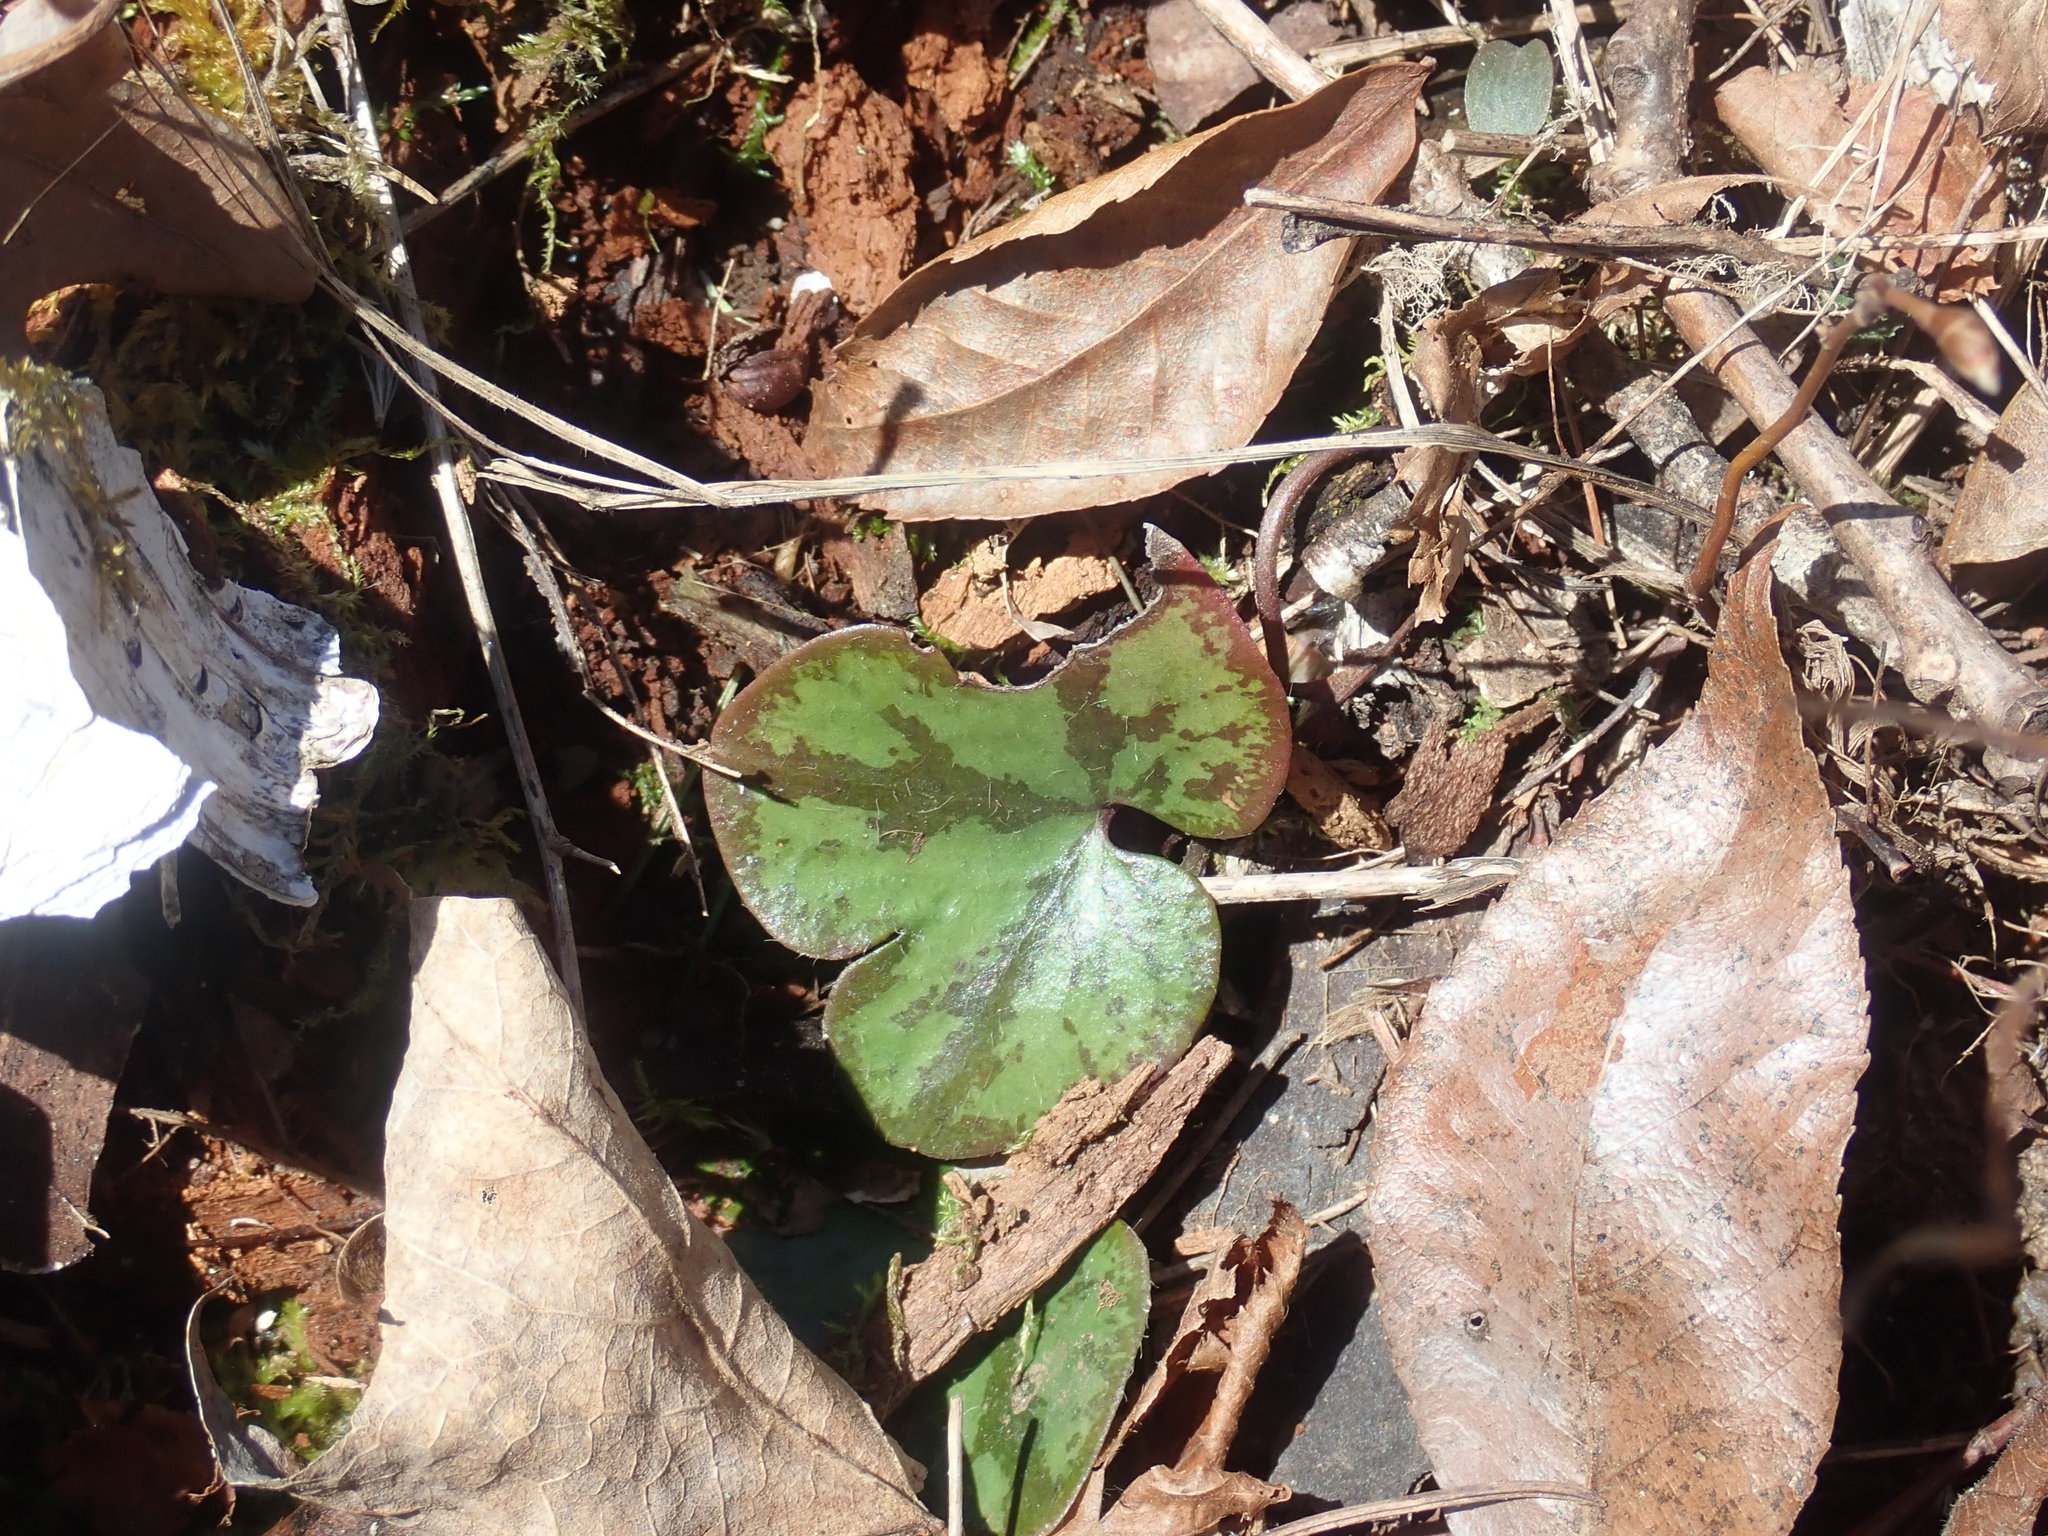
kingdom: Plantae
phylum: Tracheophyta
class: Magnoliopsida
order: Ranunculales
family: Ranunculaceae
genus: Hepatica
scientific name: Hepatica americana
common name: American hepatica
